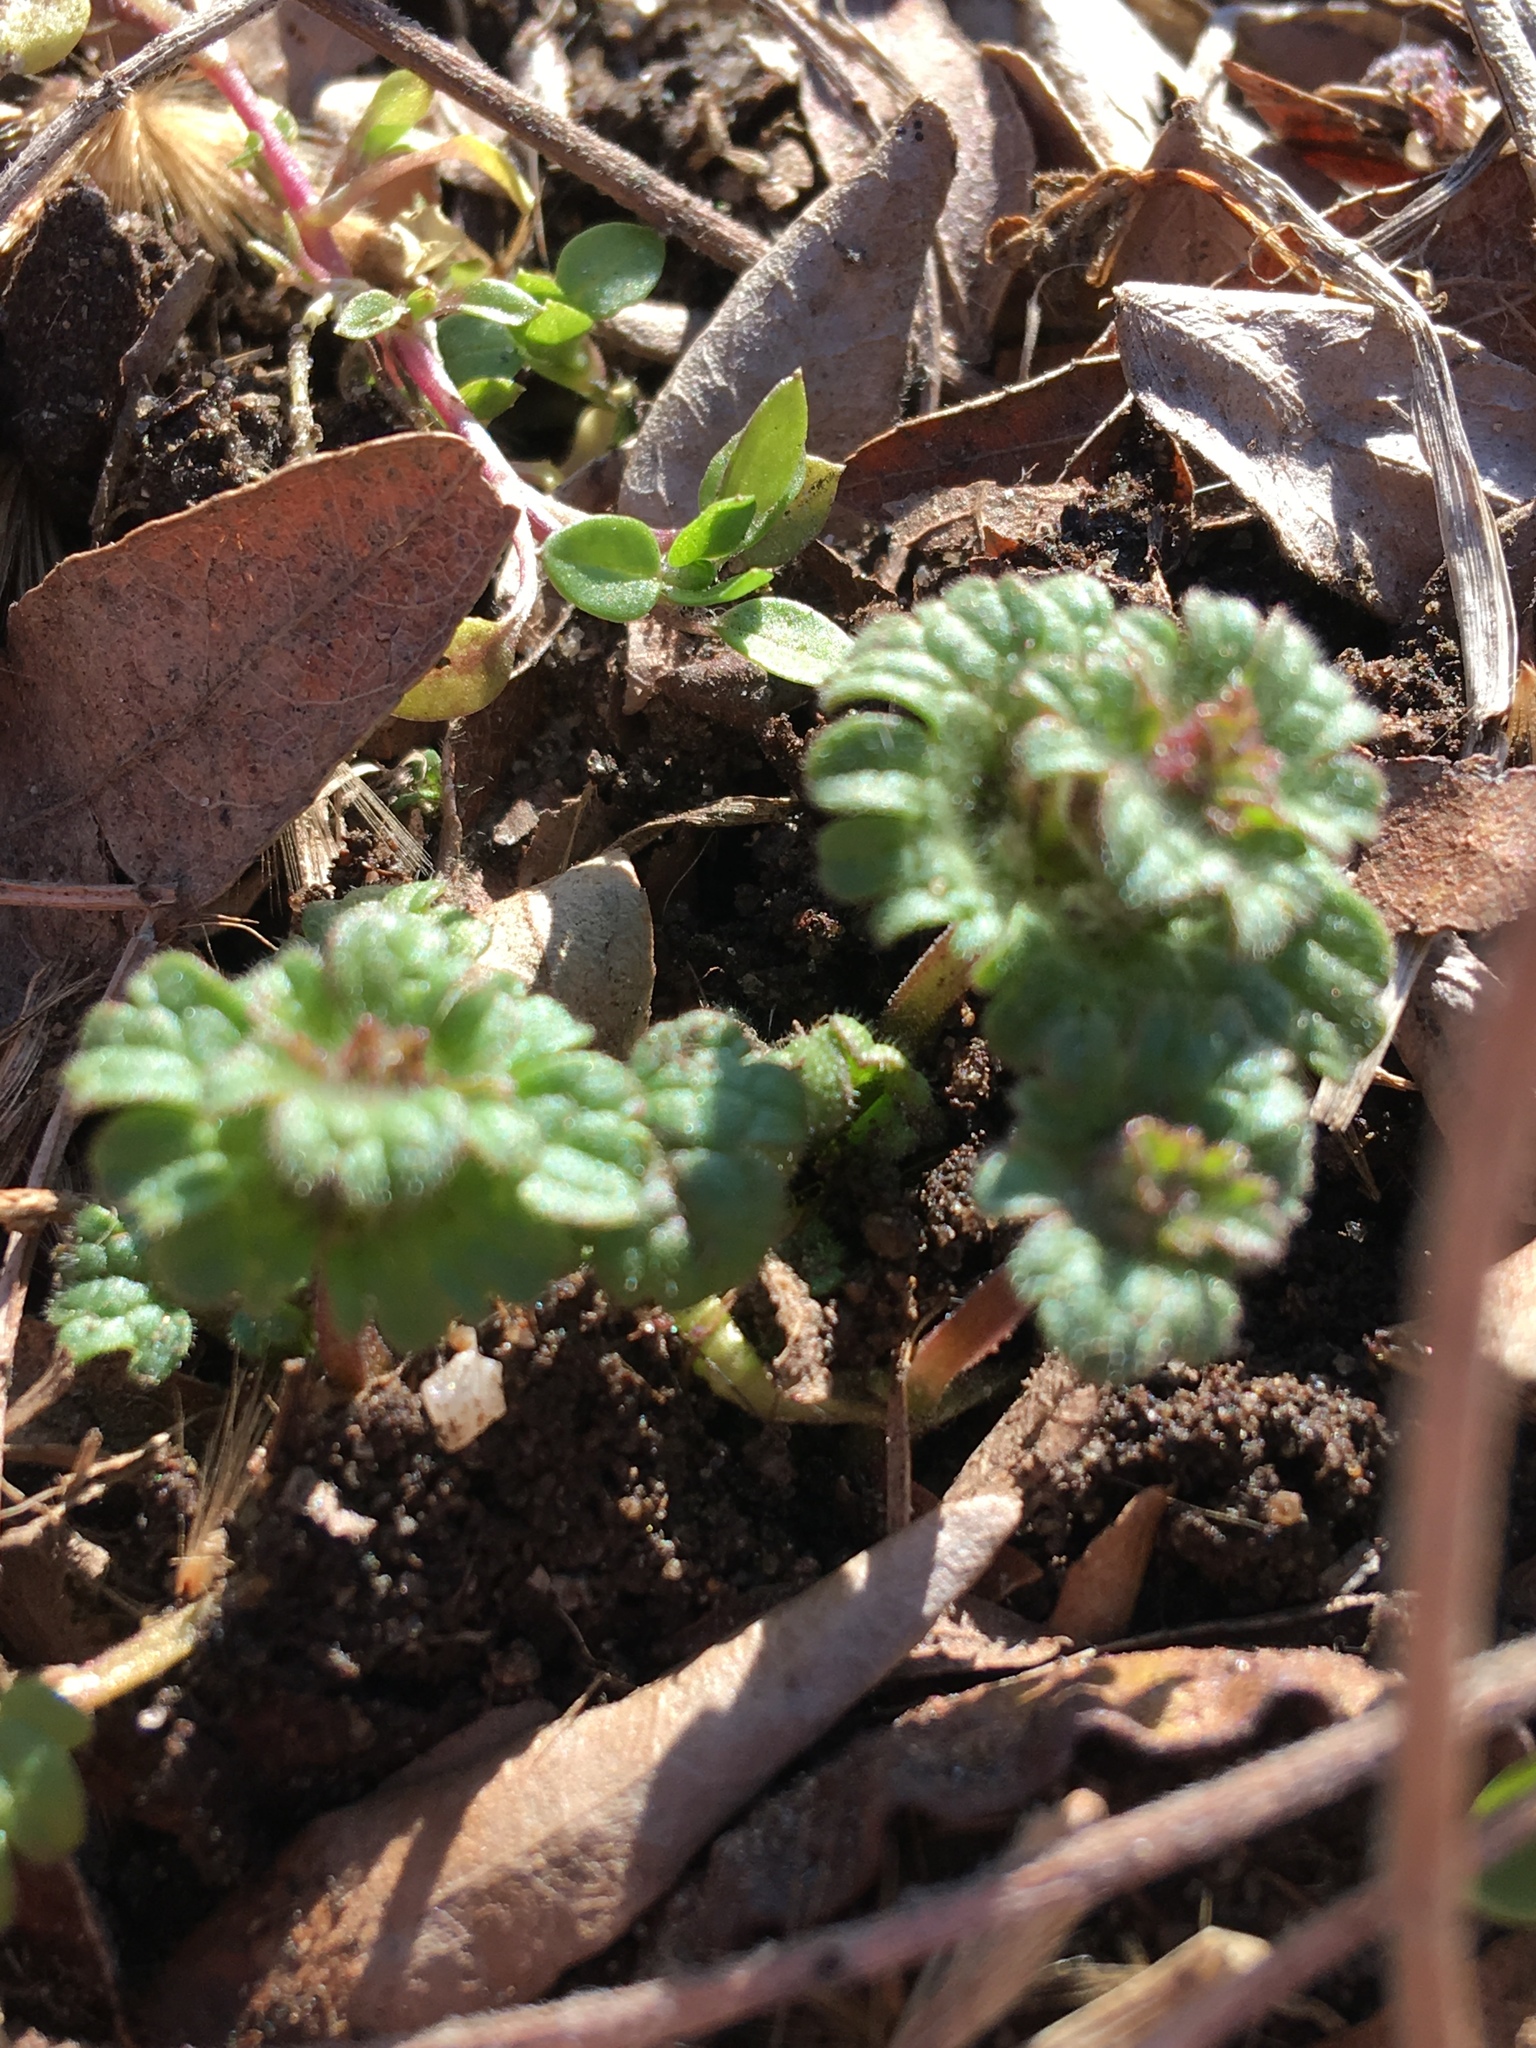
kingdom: Plantae
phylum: Tracheophyta
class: Magnoliopsida
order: Lamiales
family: Lamiaceae
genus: Lamium
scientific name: Lamium amplexicaule
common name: Henbit dead-nettle
